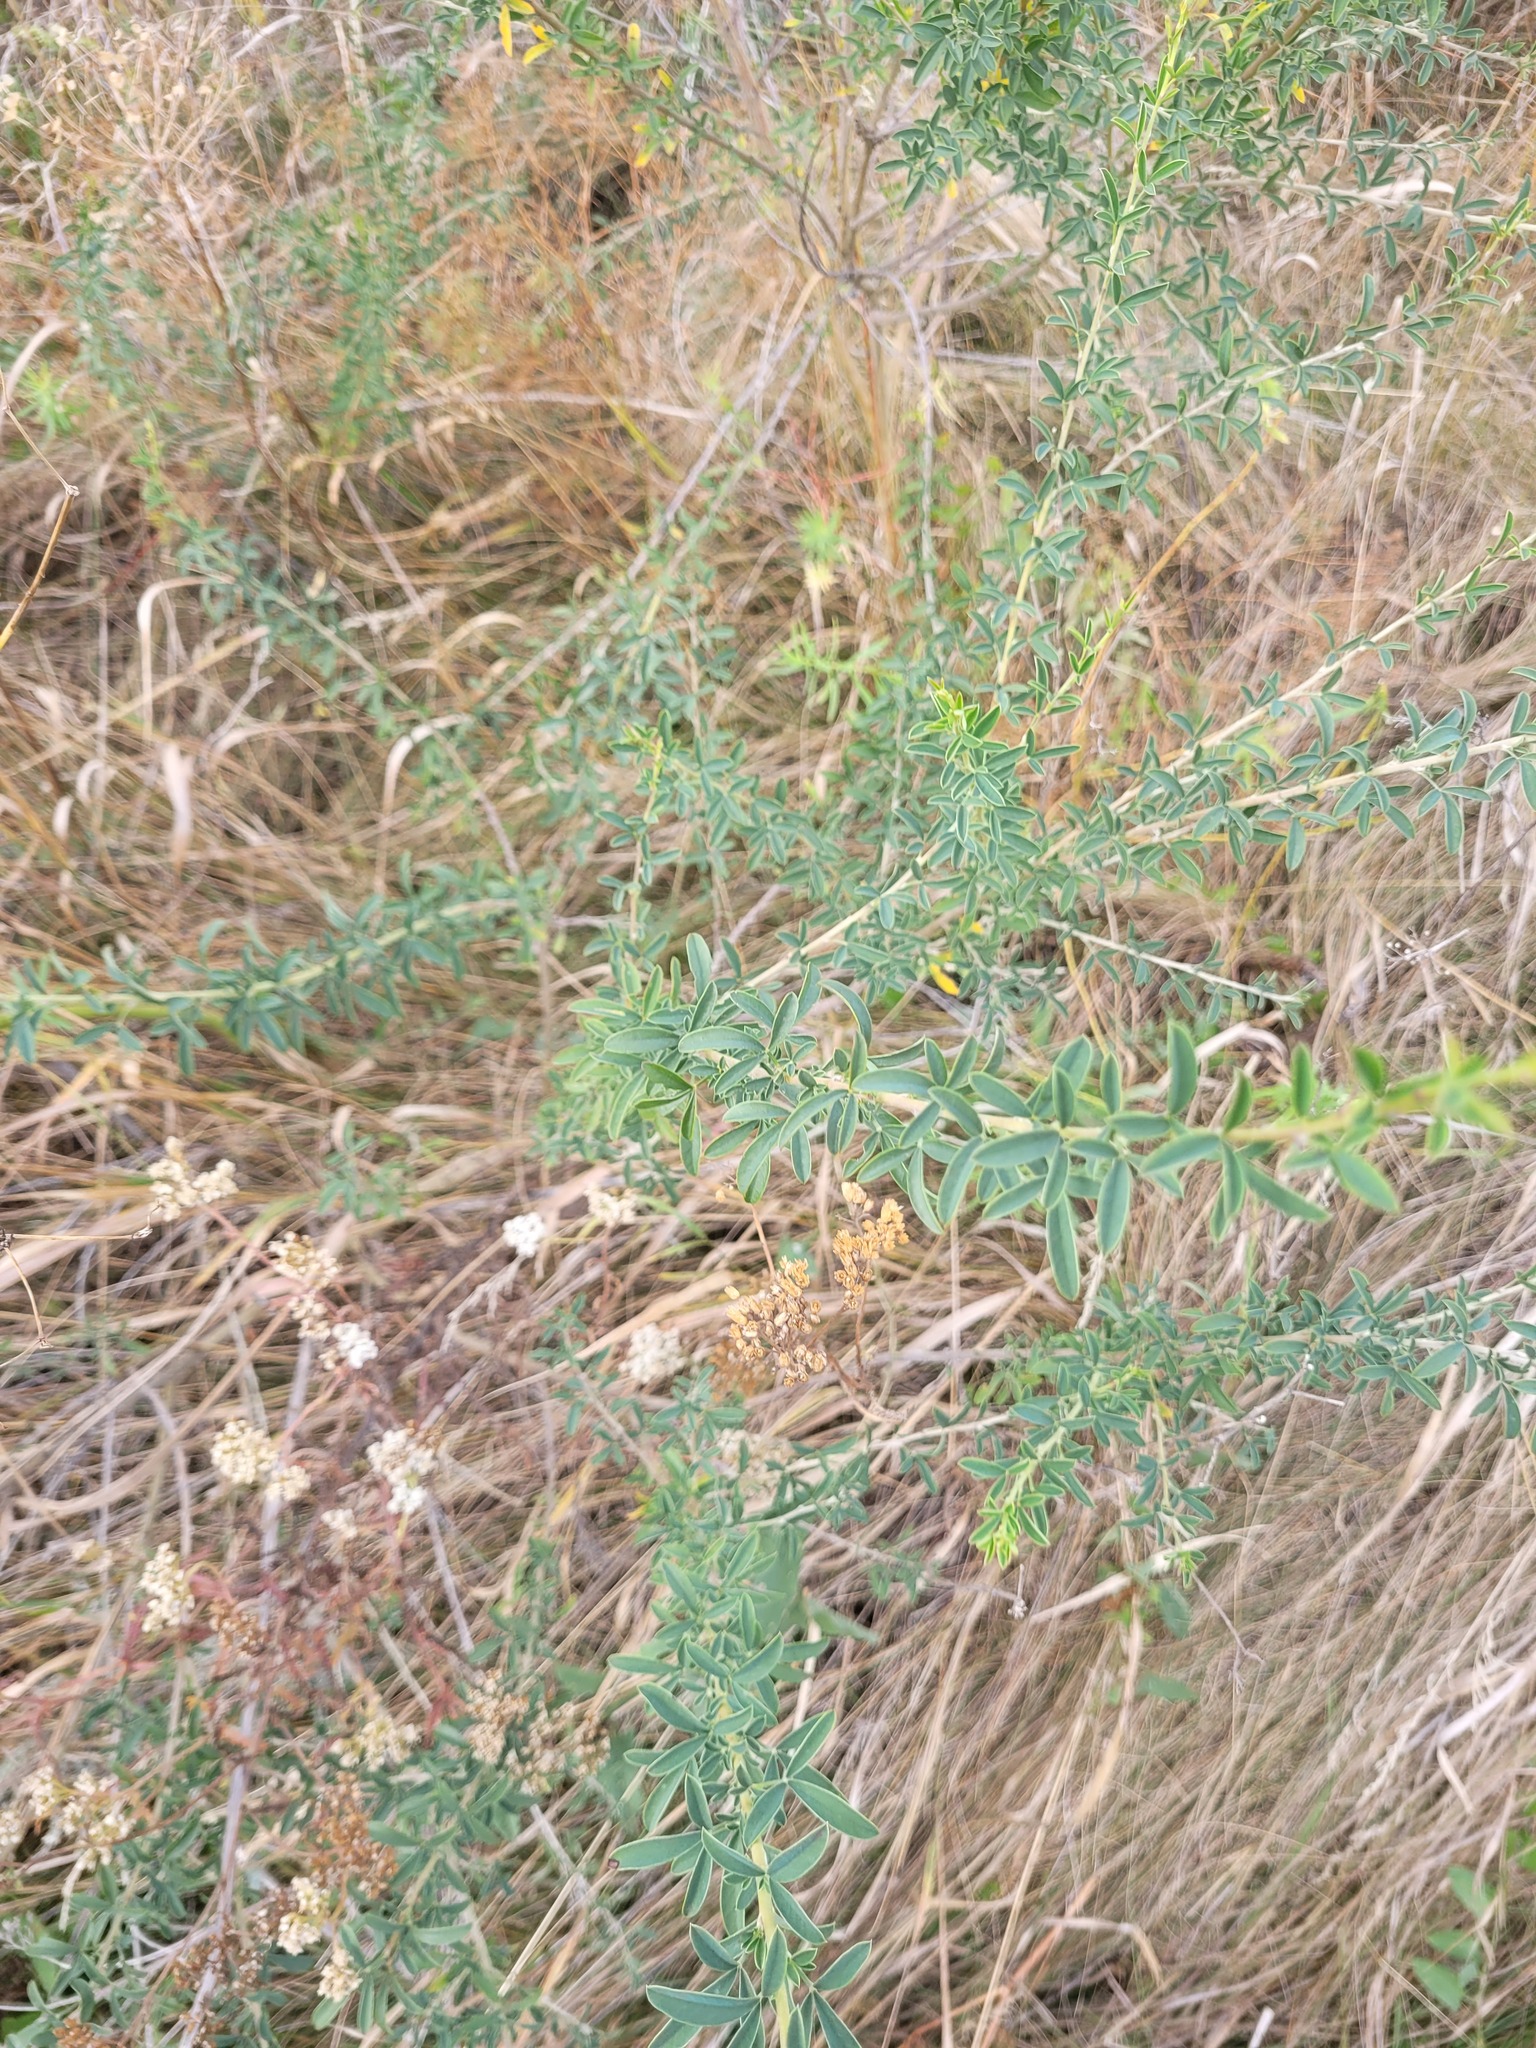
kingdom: Plantae
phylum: Tracheophyta
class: Magnoliopsida
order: Fabales
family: Fabaceae
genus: Chamaecytisus
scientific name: Chamaecytisus ruthenicus
